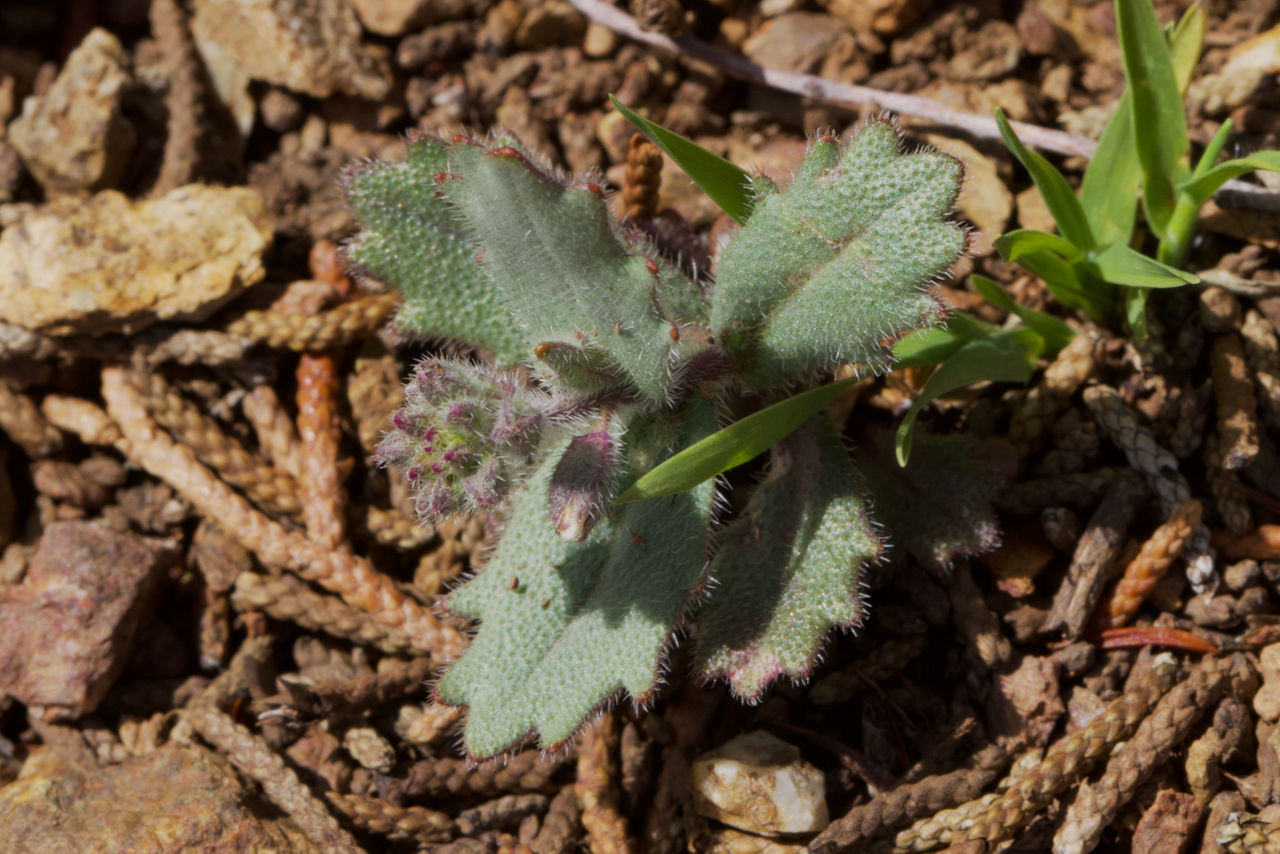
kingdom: Plantae
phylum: Tracheophyta
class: Magnoliopsida
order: Brassicales
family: Brassicaceae
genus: Streptanthus
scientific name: Streptanthus hispidus
